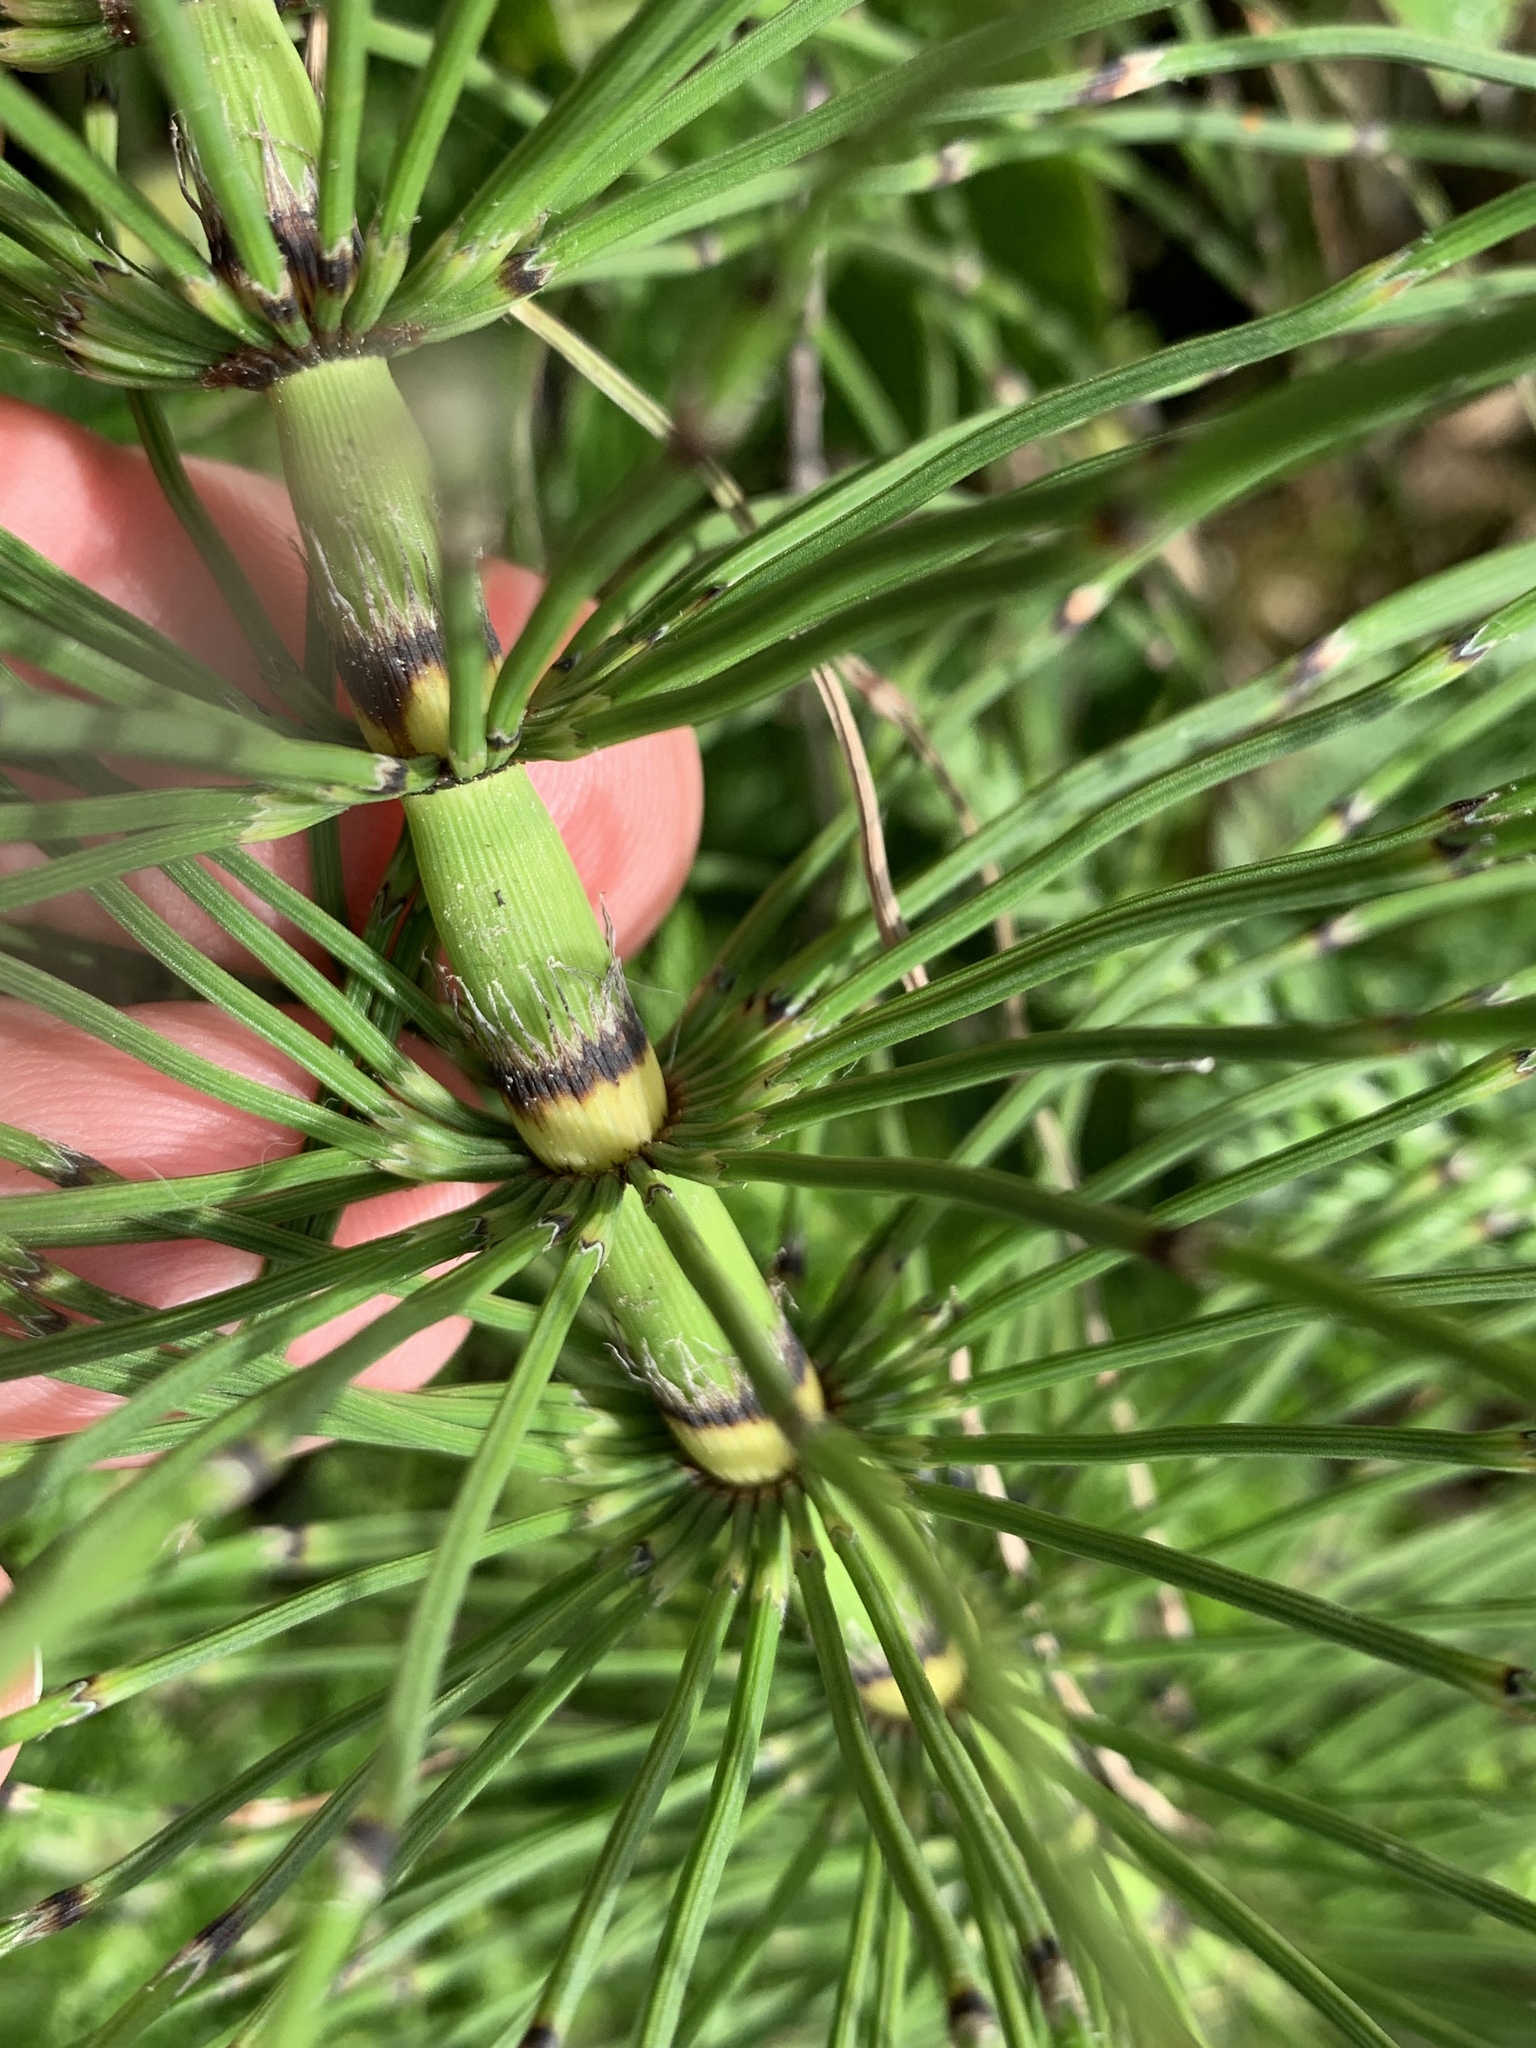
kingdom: Plantae
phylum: Tracheophyta
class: Polypodiopsida
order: Equisetales
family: Equisetaceae
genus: Equisetum
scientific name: Equisetum telmateia
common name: Great horsetail
